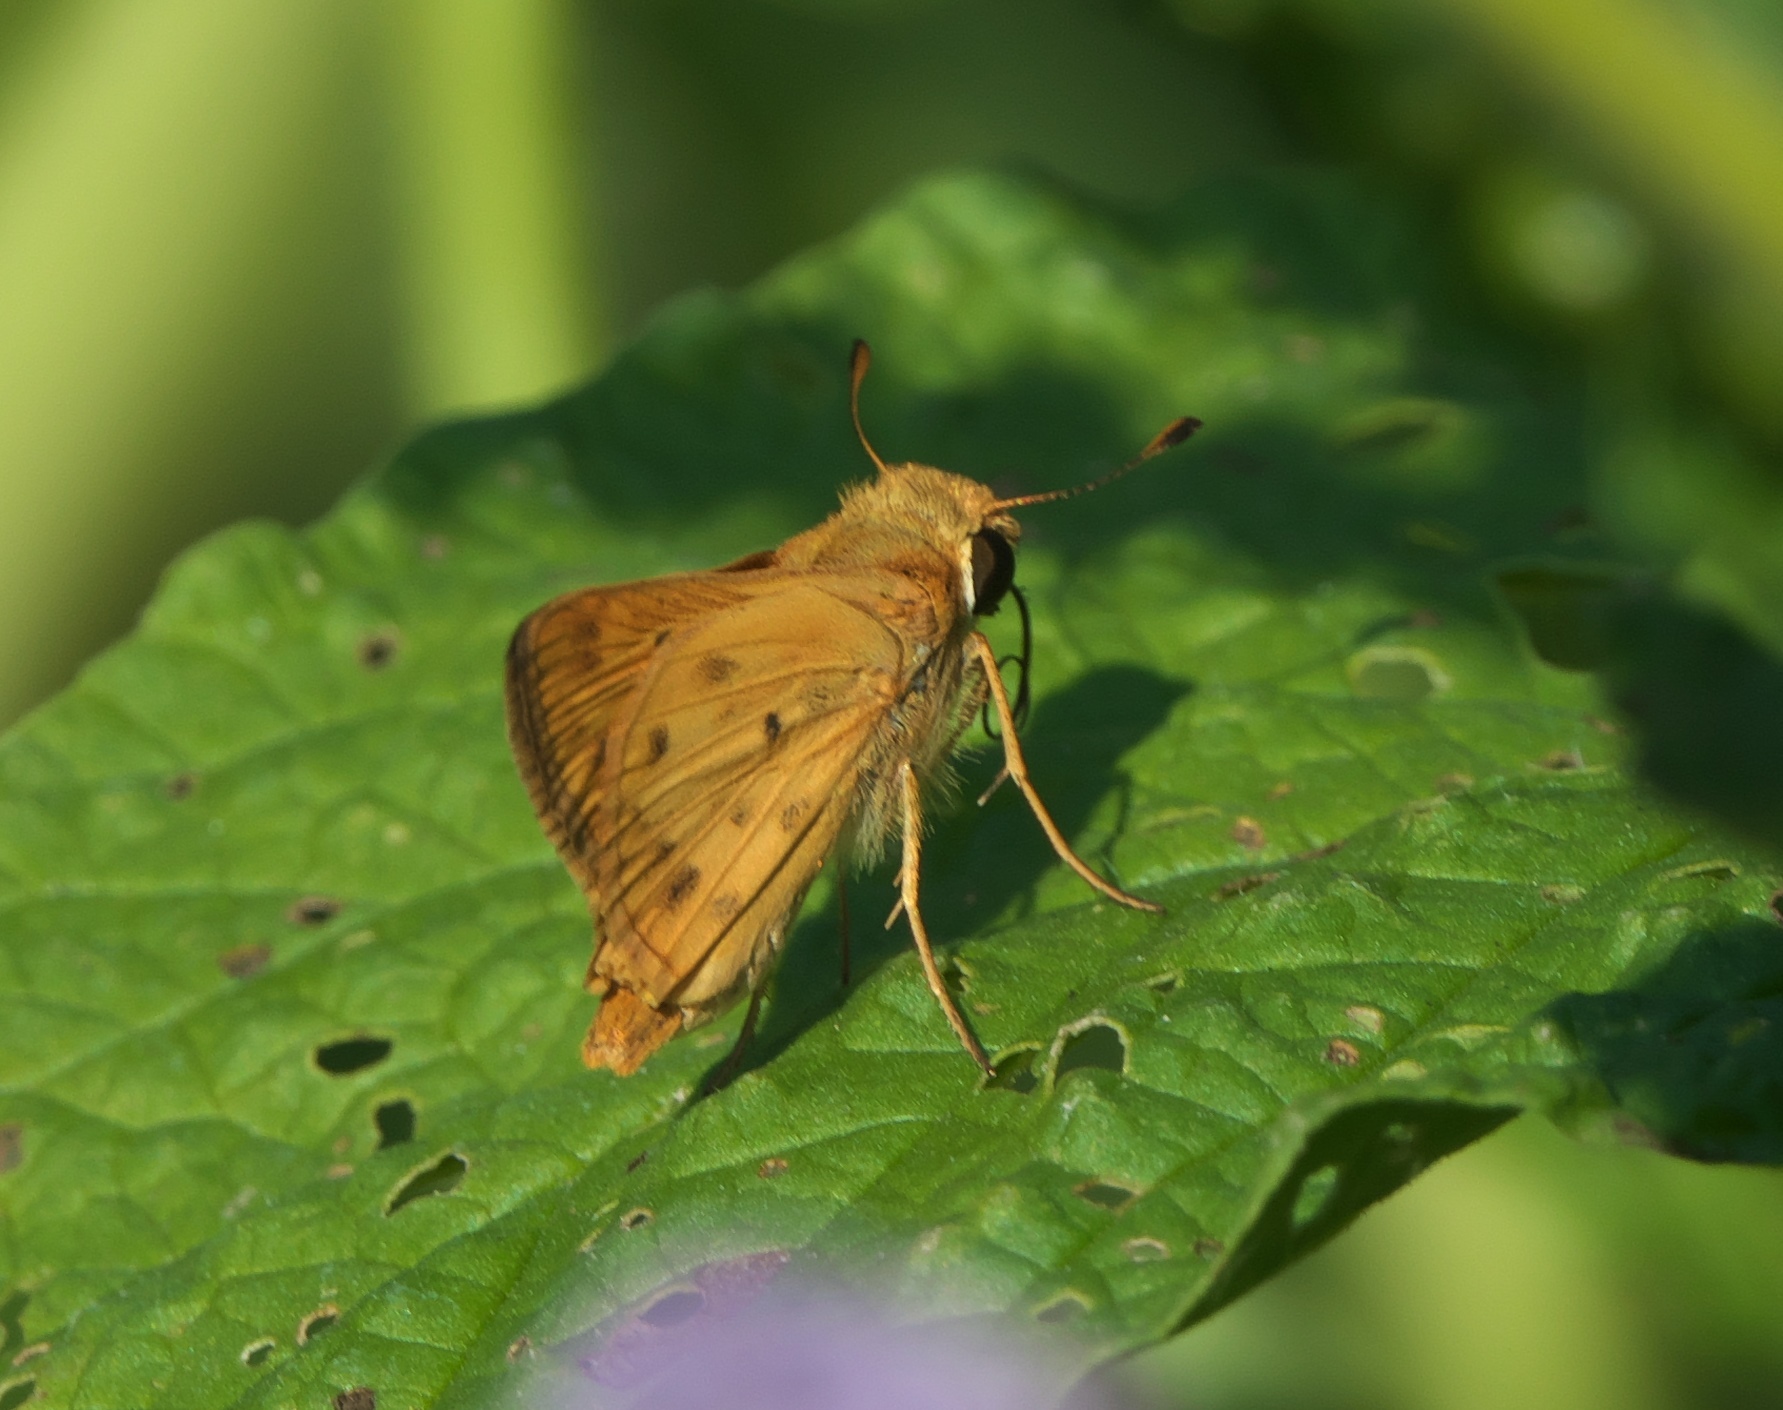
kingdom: Animalia
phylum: Arthropoda
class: Insecta
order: Lepidoptera
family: Hesperiidae
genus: Hylephila
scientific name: Hylephila phyleus
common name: Fiery skipper
